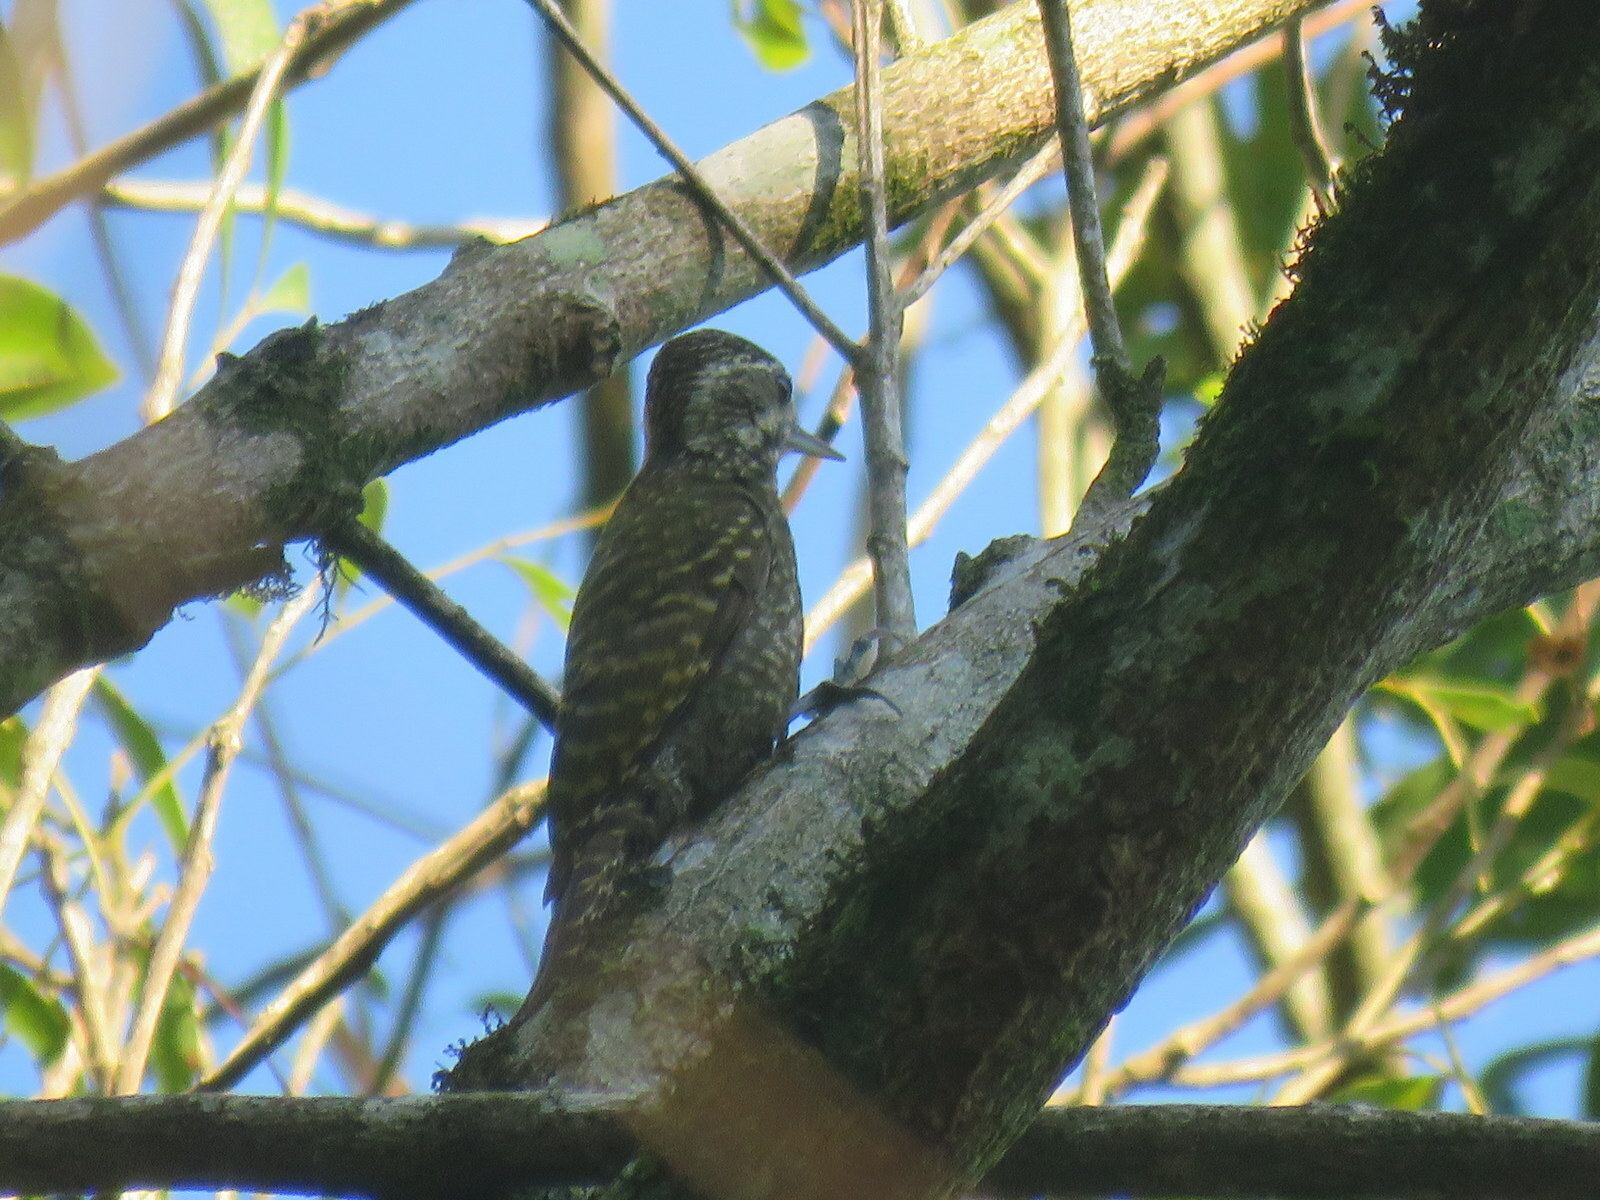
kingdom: Animalia
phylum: Chordata
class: Aves
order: Piciformes
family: Picidae
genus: Veniliornis
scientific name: Veniliornis spilogaster
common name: White-spotted woodpecker
